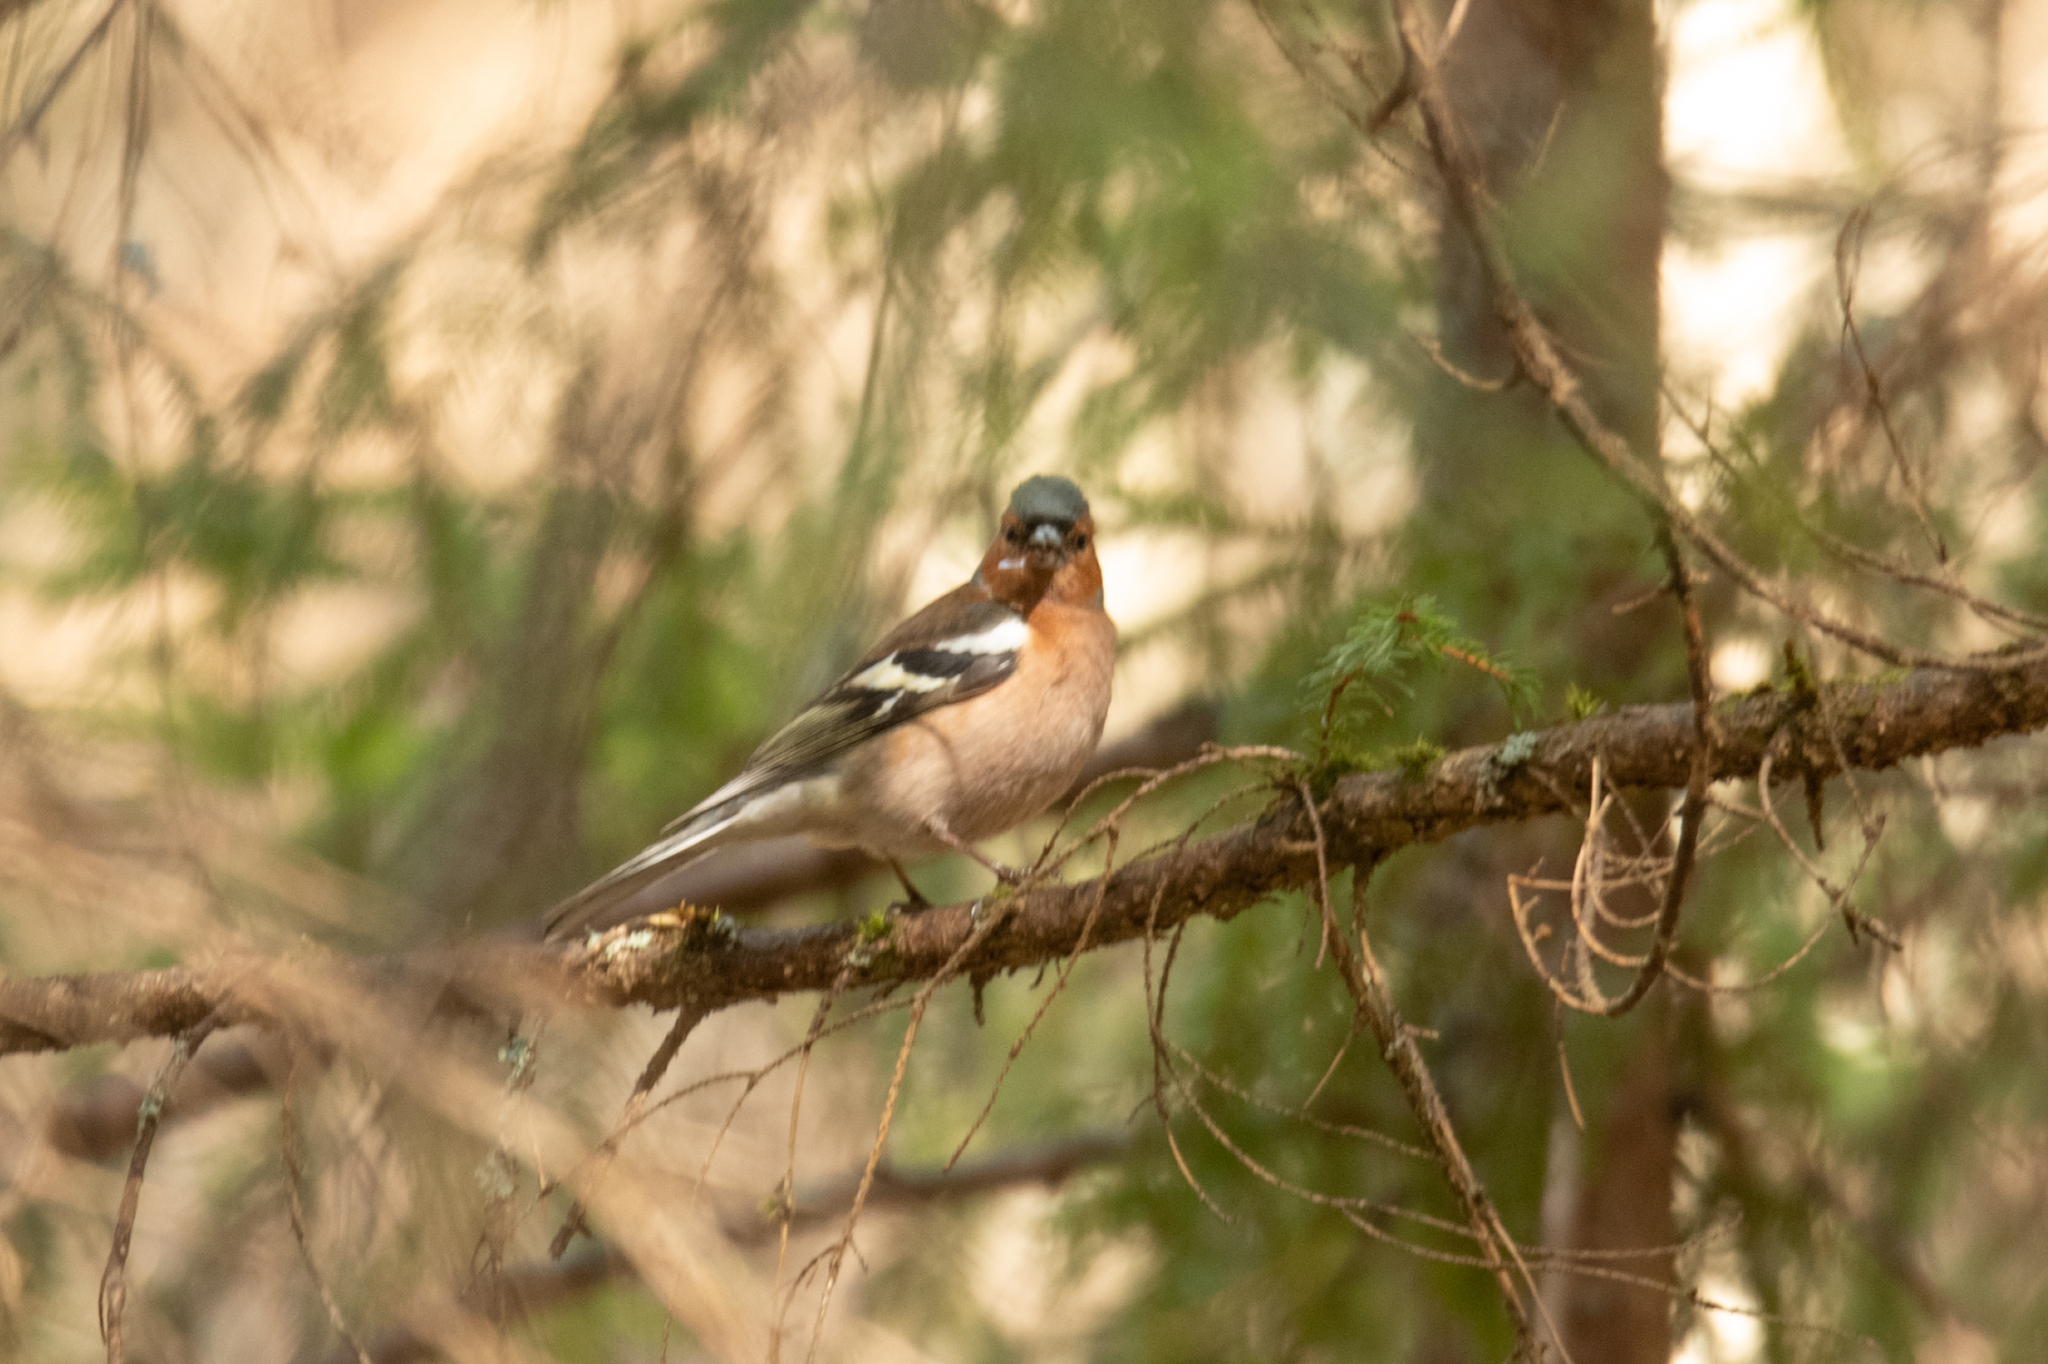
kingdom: Animalia
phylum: Chordata
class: Aves
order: Passeriformes
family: Fringillidae
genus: Fringilla
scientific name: Fringilla coelebs
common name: Common chaffinch
